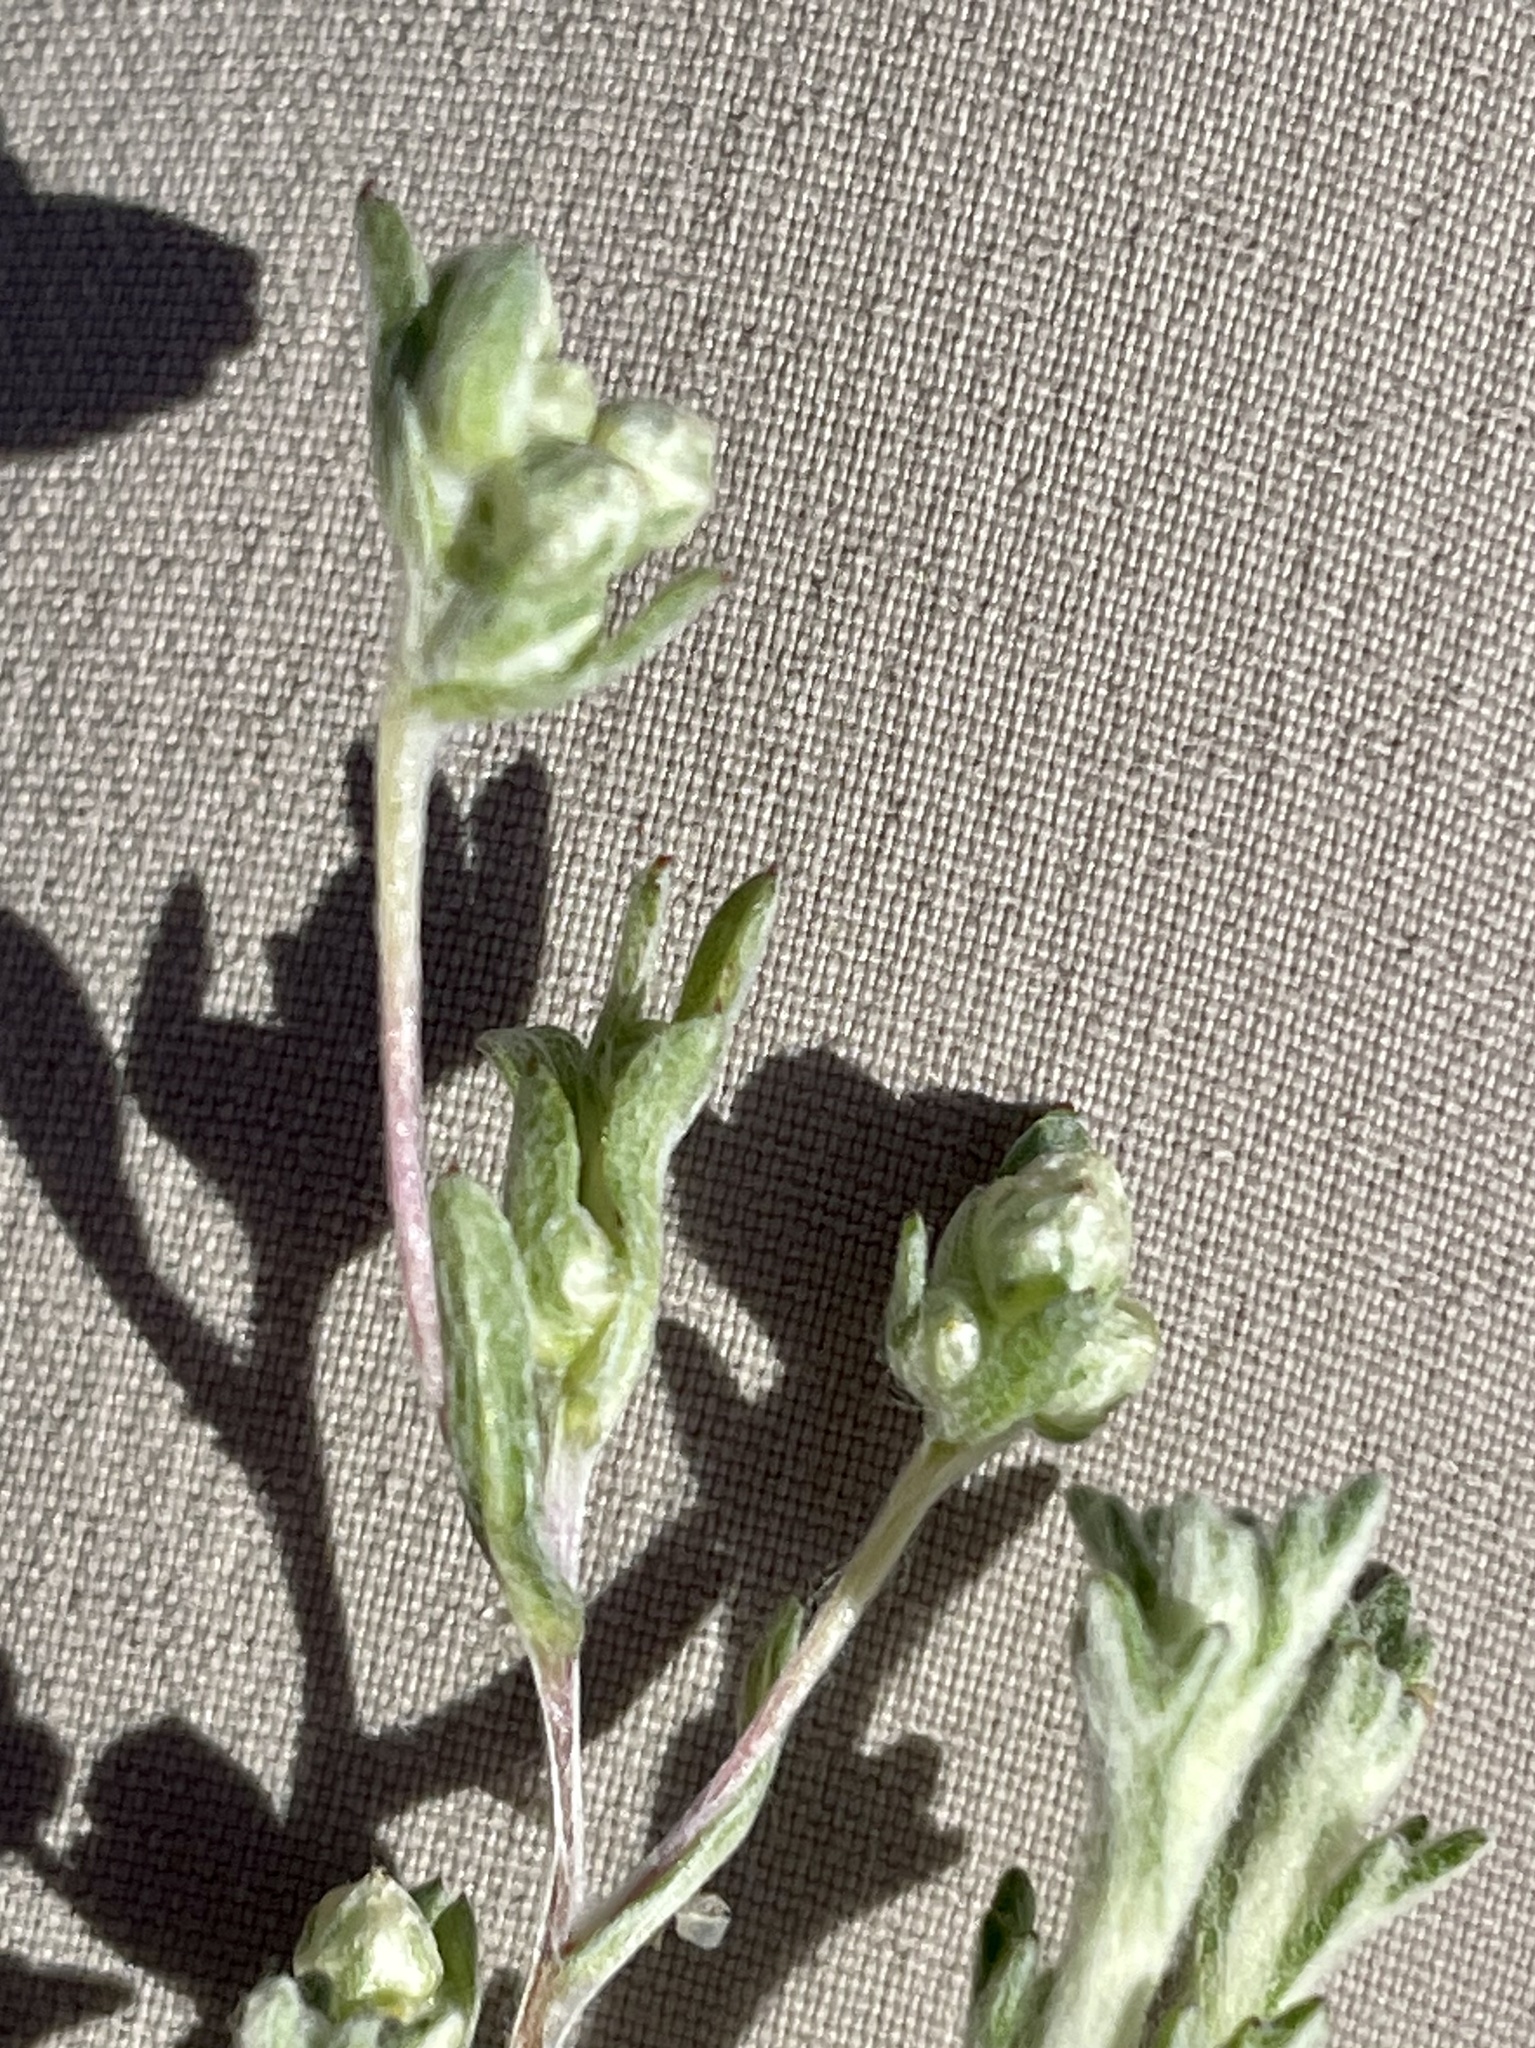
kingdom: Plantae
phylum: Tracheophyta
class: Magnoliopsida
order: Asterales
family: Asteraceae
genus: Stylocline
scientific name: Stylocline gnaphaloides
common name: Everlasting nest-straw
